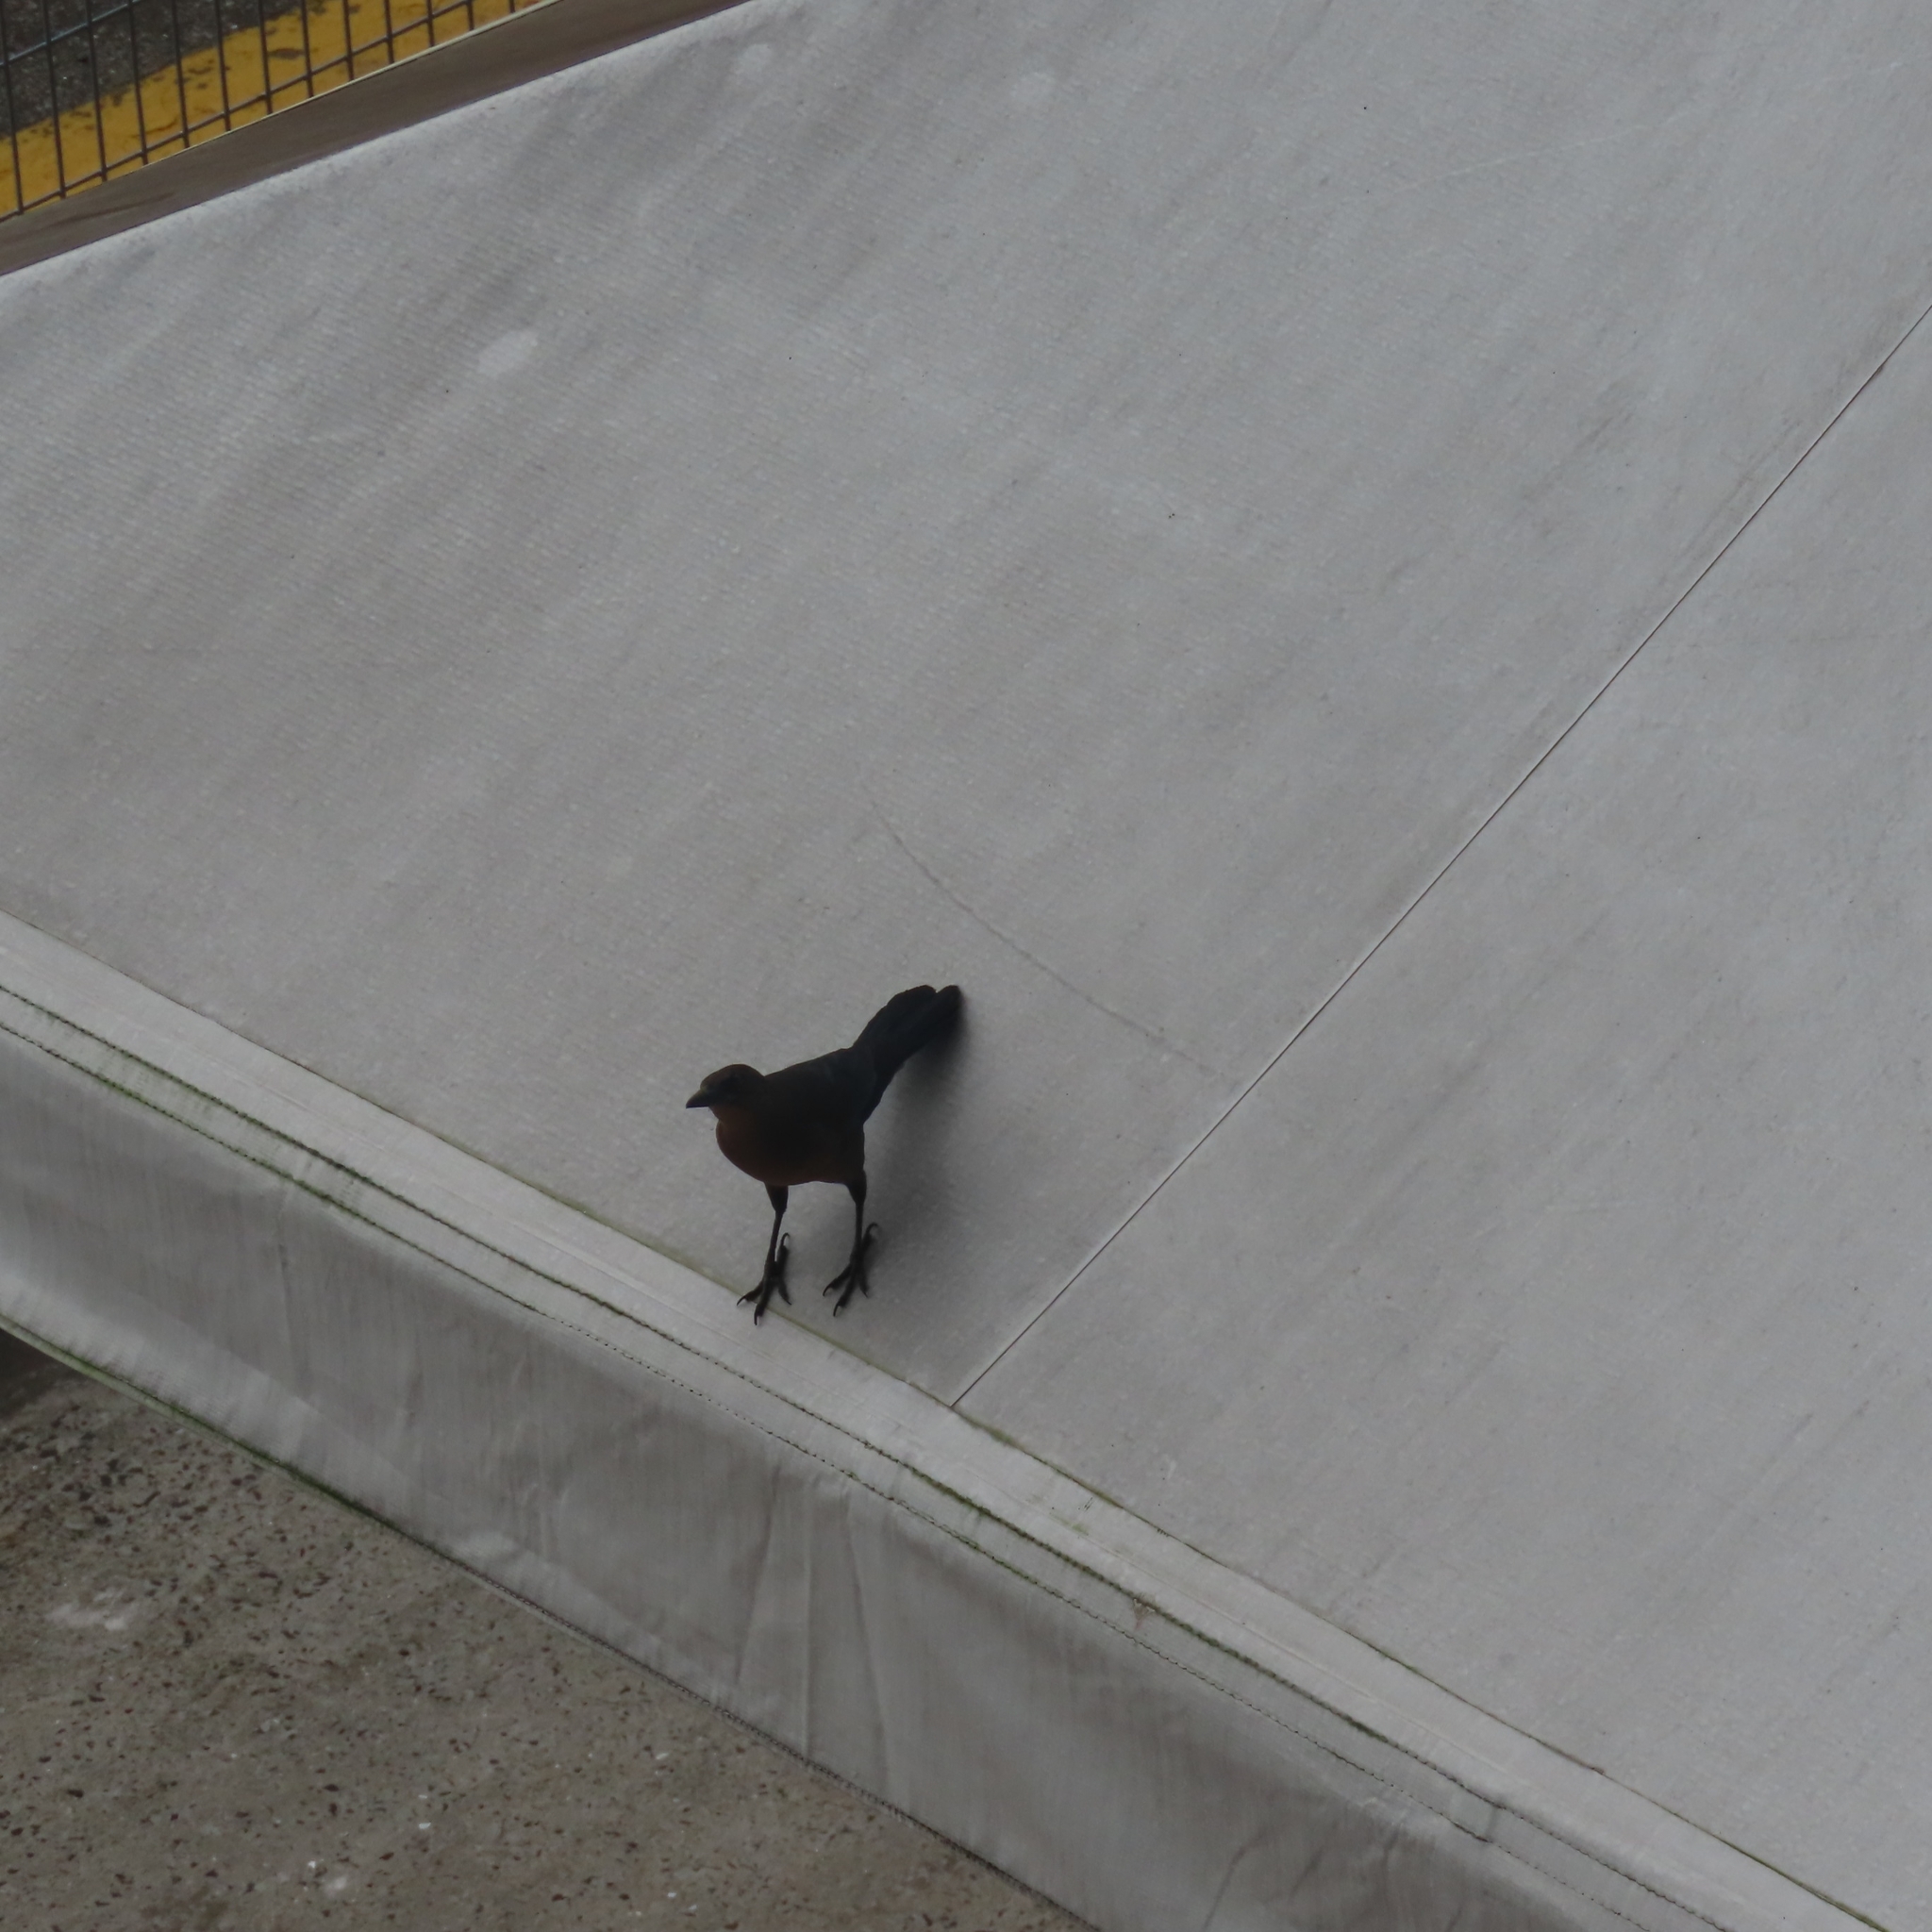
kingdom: Animalia
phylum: Chordata
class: Aves
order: Passeriformes
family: Icteridae
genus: Quiscalus
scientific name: Quiscalus mexicanus
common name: Great-tailed grackle
